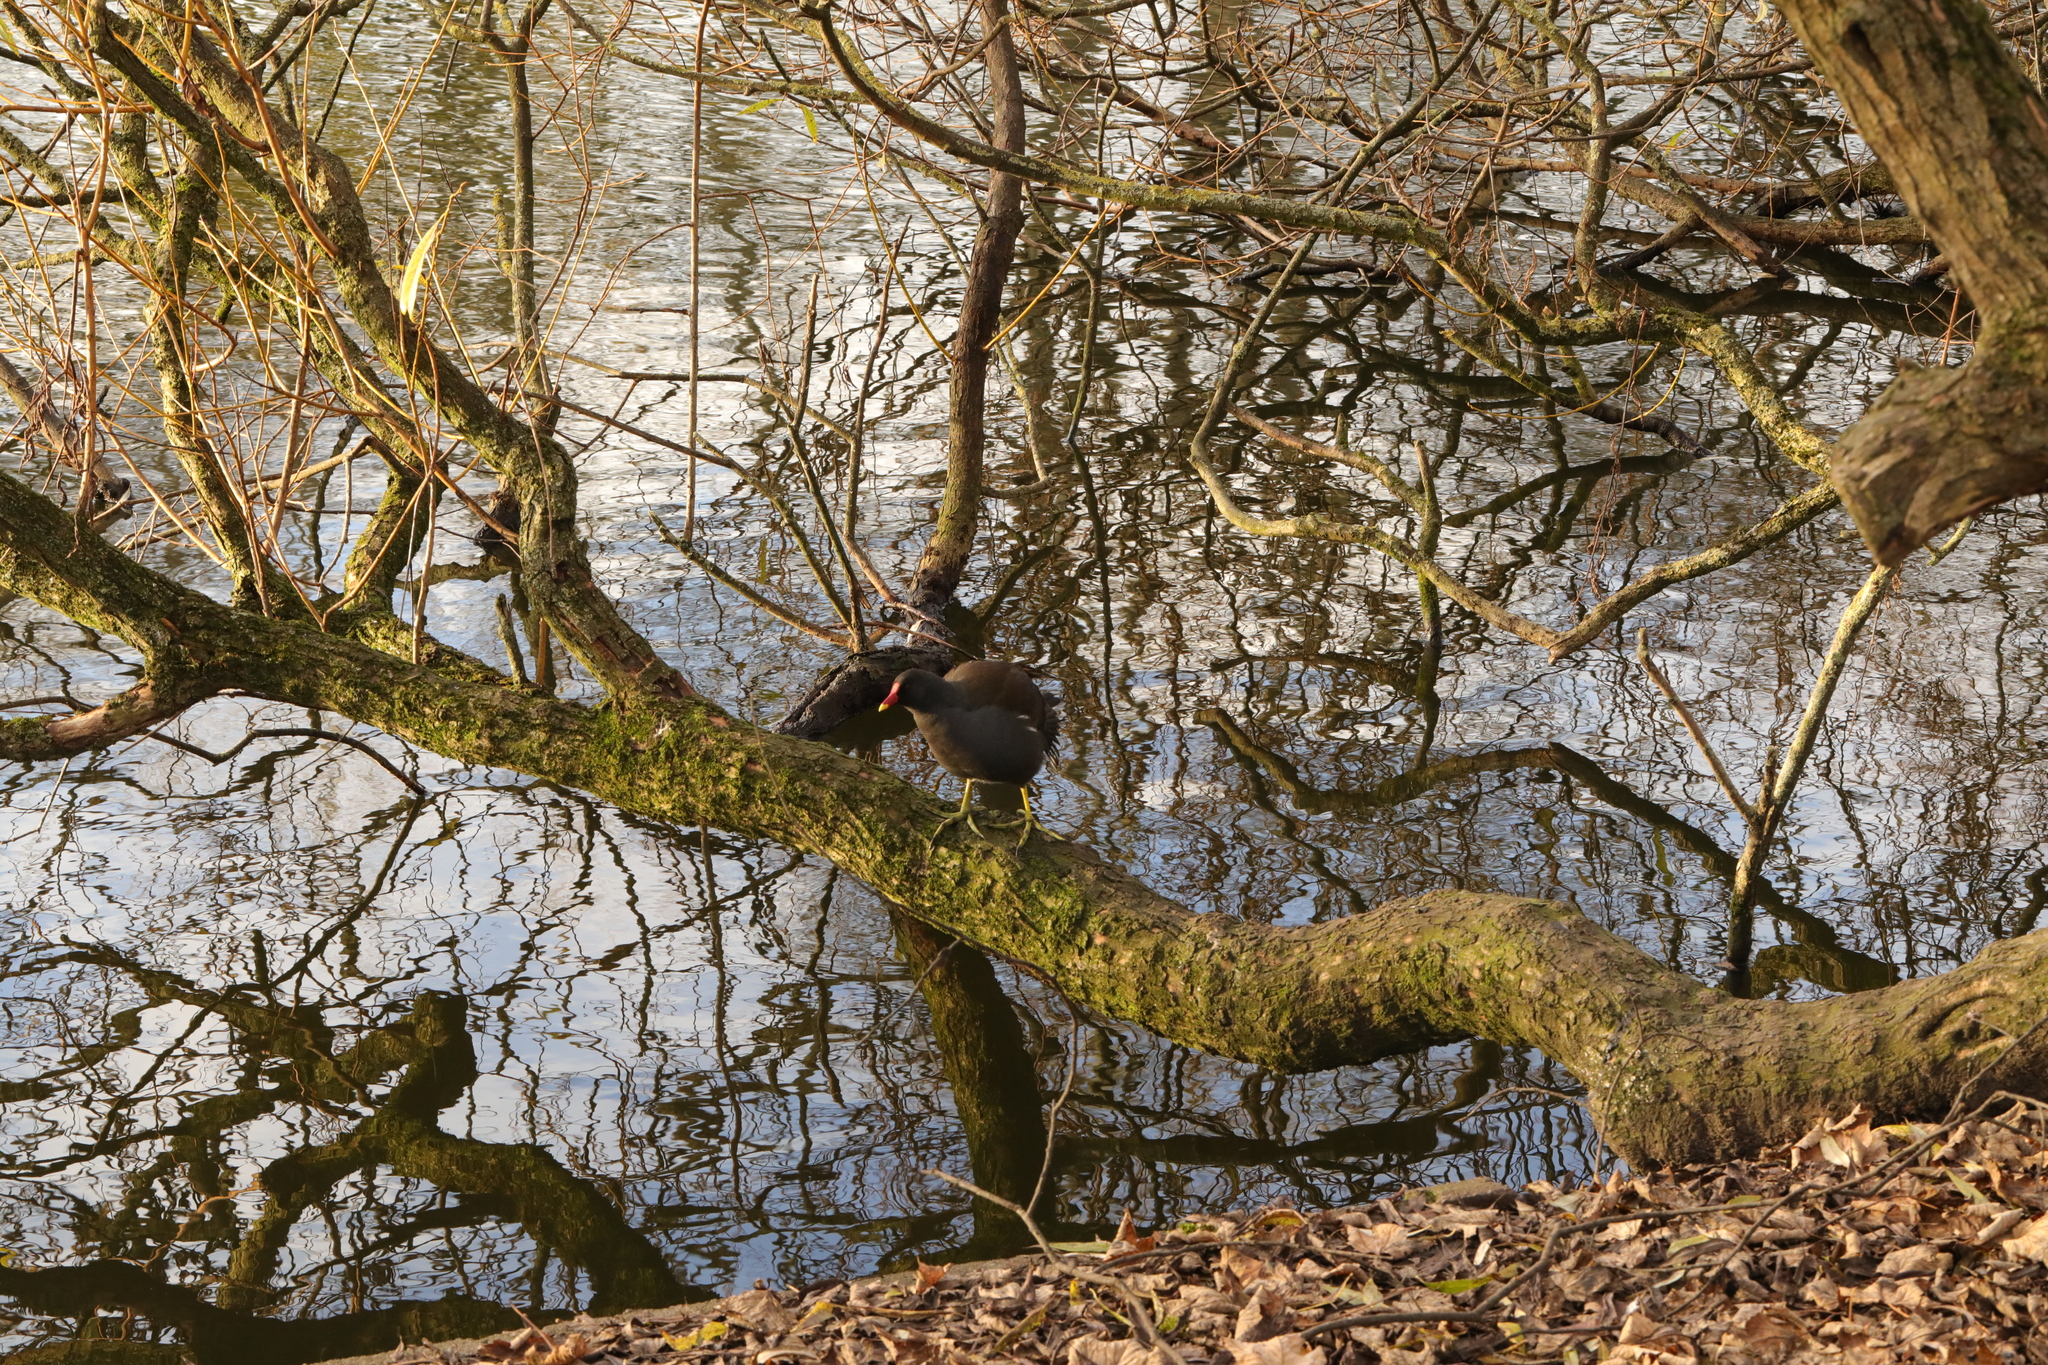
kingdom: Animalia
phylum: Chordata
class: Aves
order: Gruiformes
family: Rallidae
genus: Gallinula
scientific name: Gallinula chloropus
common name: Common moorhen
